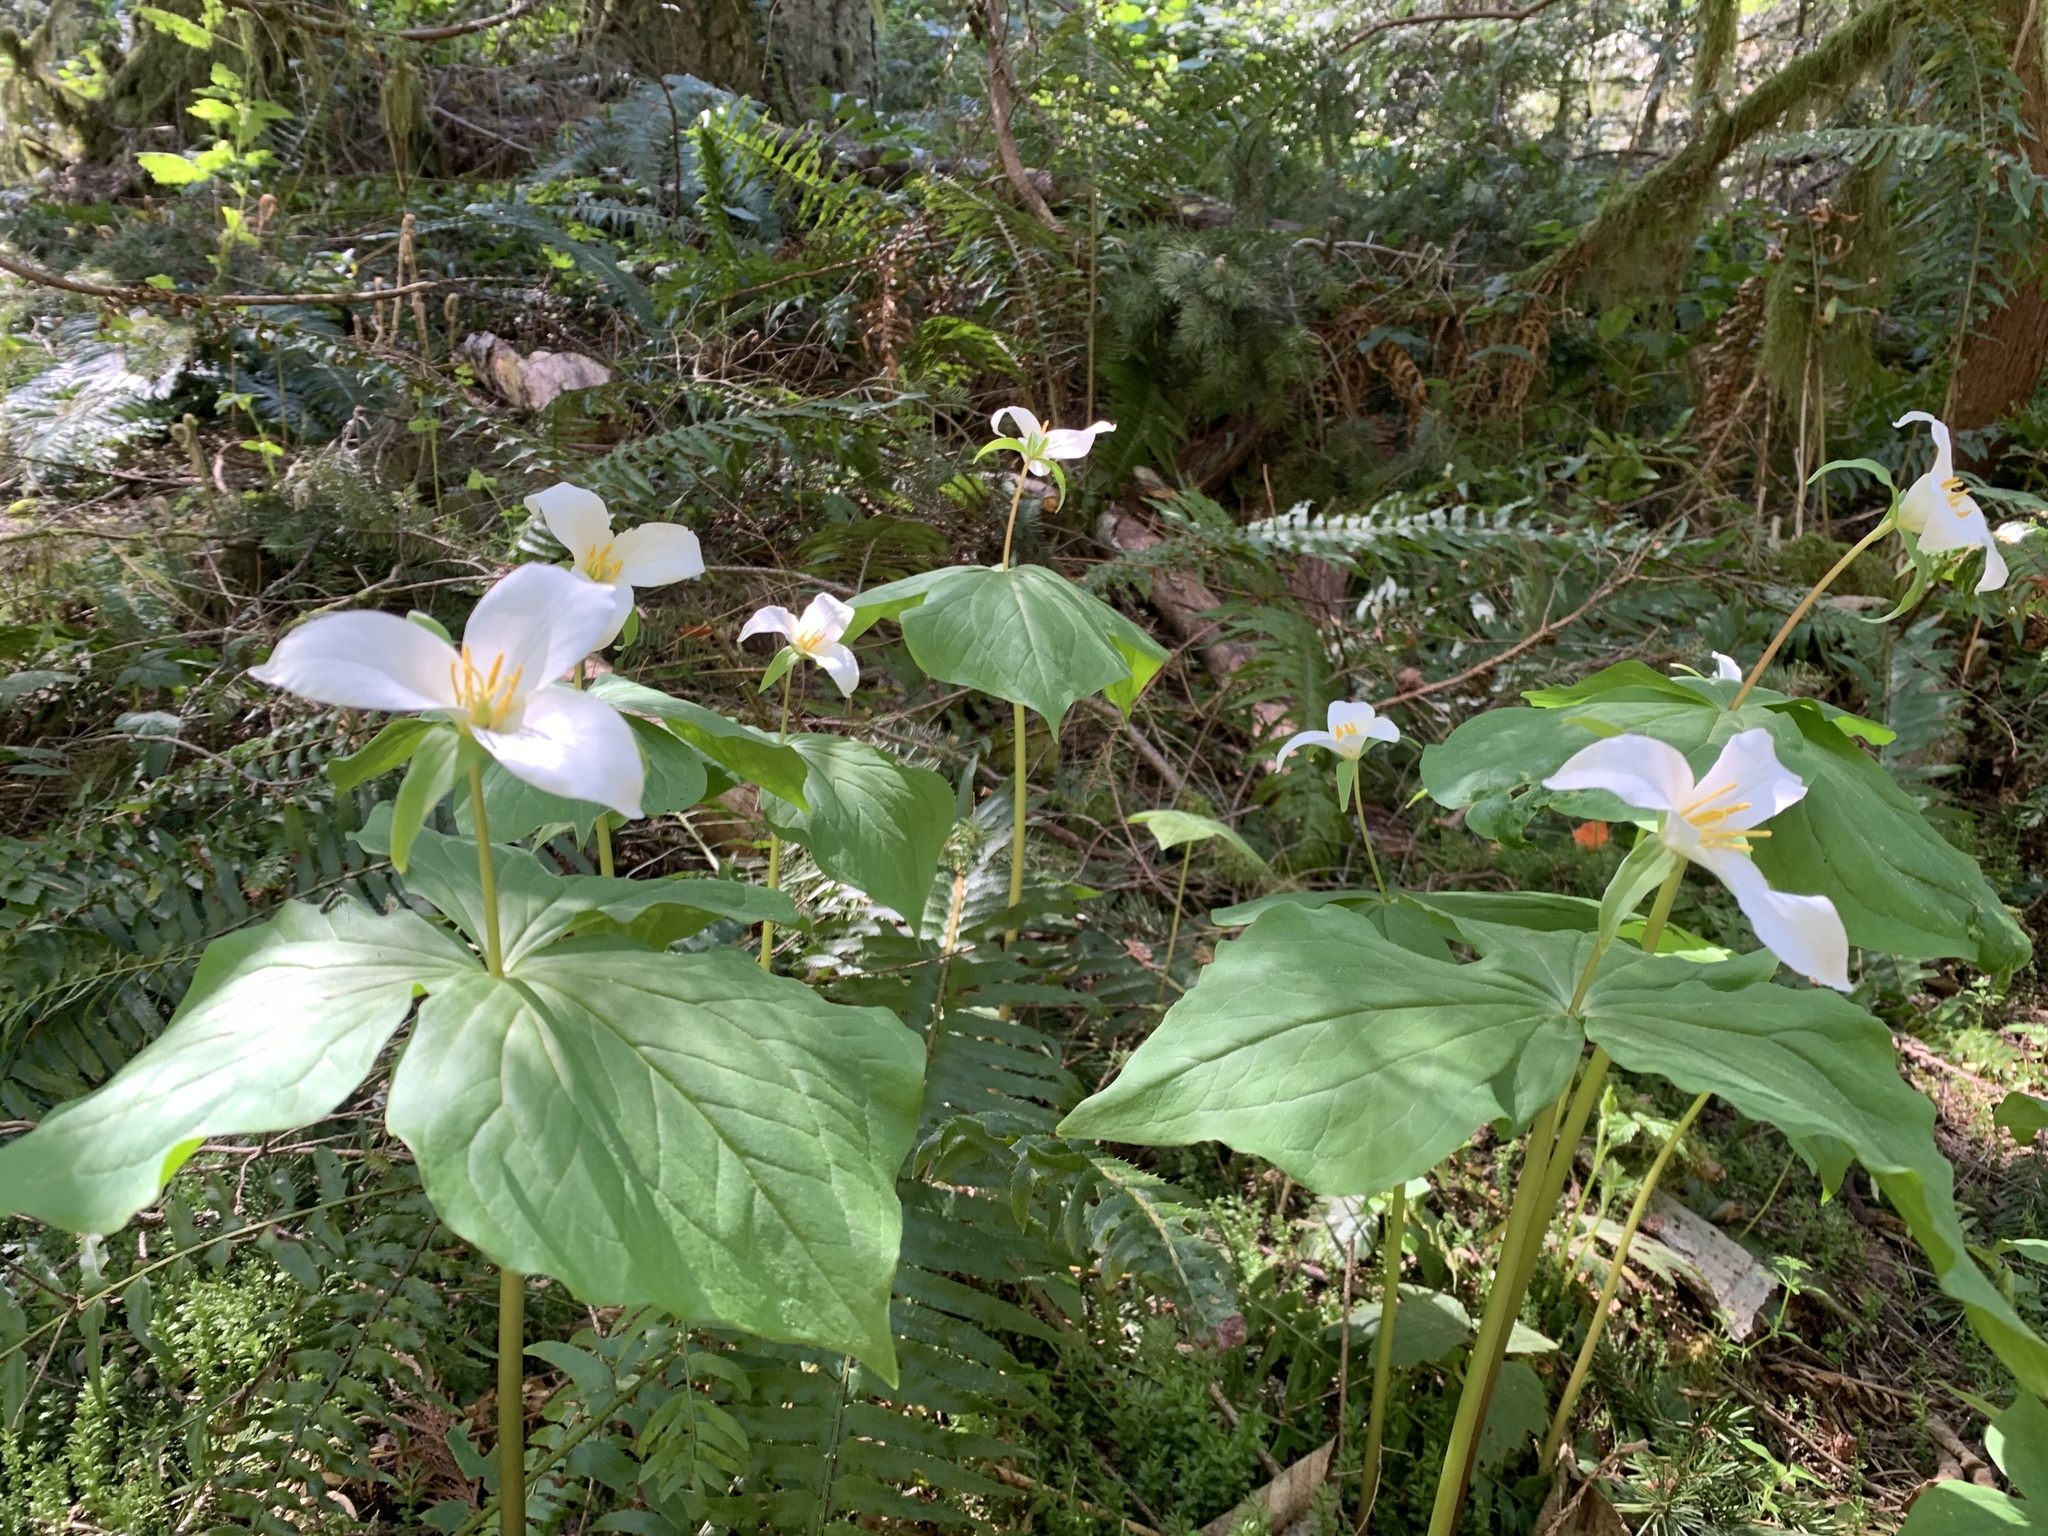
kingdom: Plantae
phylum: Tracheophyta
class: Liliopsida
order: Liliales
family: Melanthiaceae
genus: Trillium
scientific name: Trillium ovatum
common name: Pacific trillium
